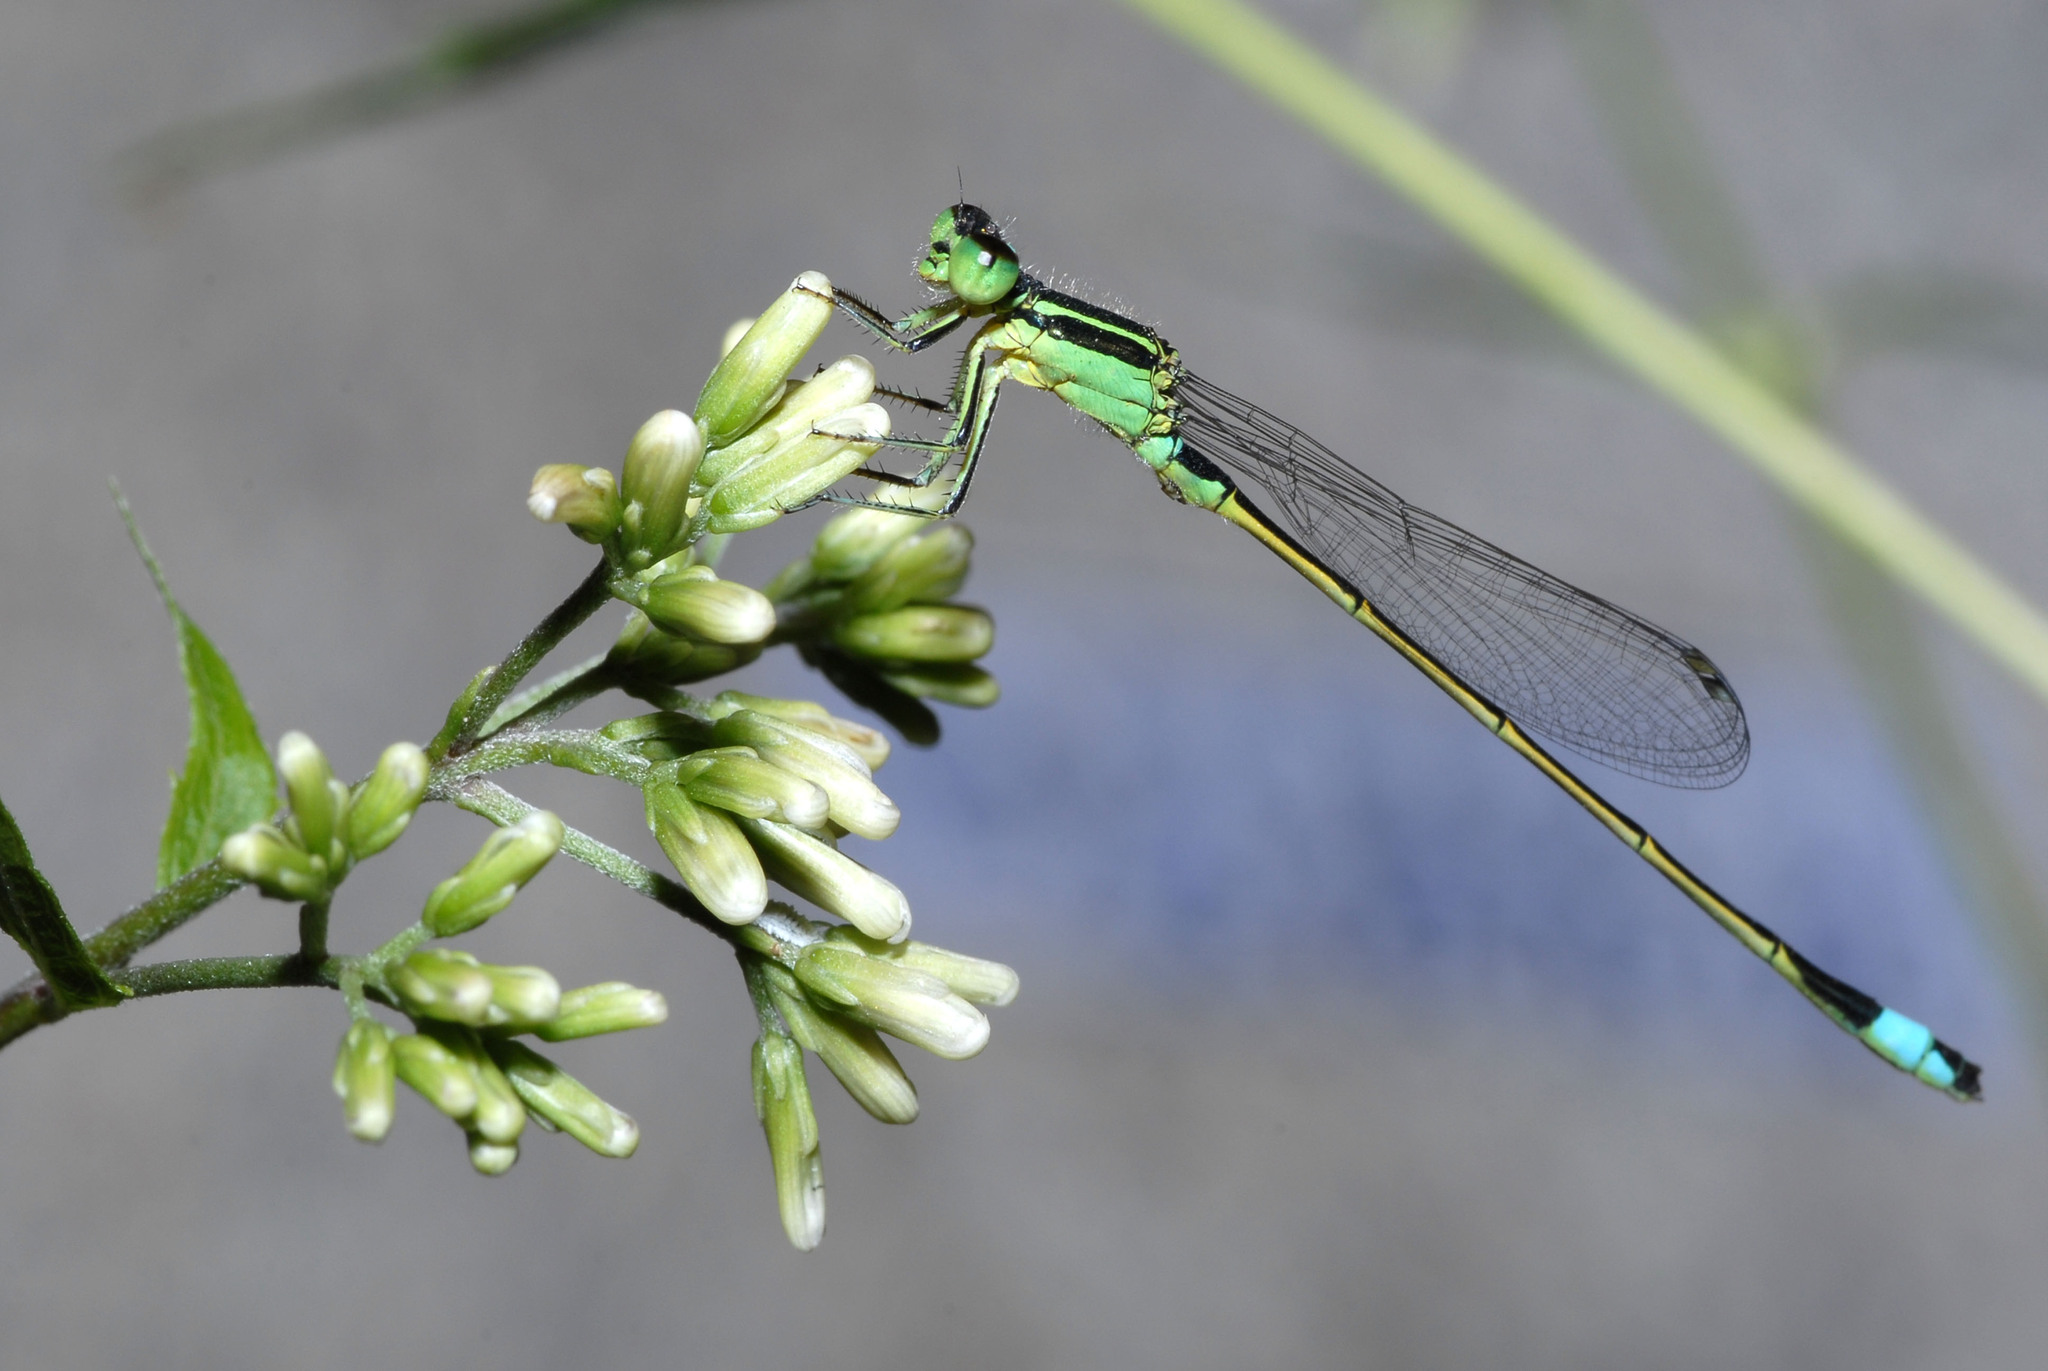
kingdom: Animalia
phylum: Arthropoda
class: Insecta
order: Odonata
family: Coenagrionidae
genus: Ischnura
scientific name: Ischnura senegalensis
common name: Tropical bluetail
